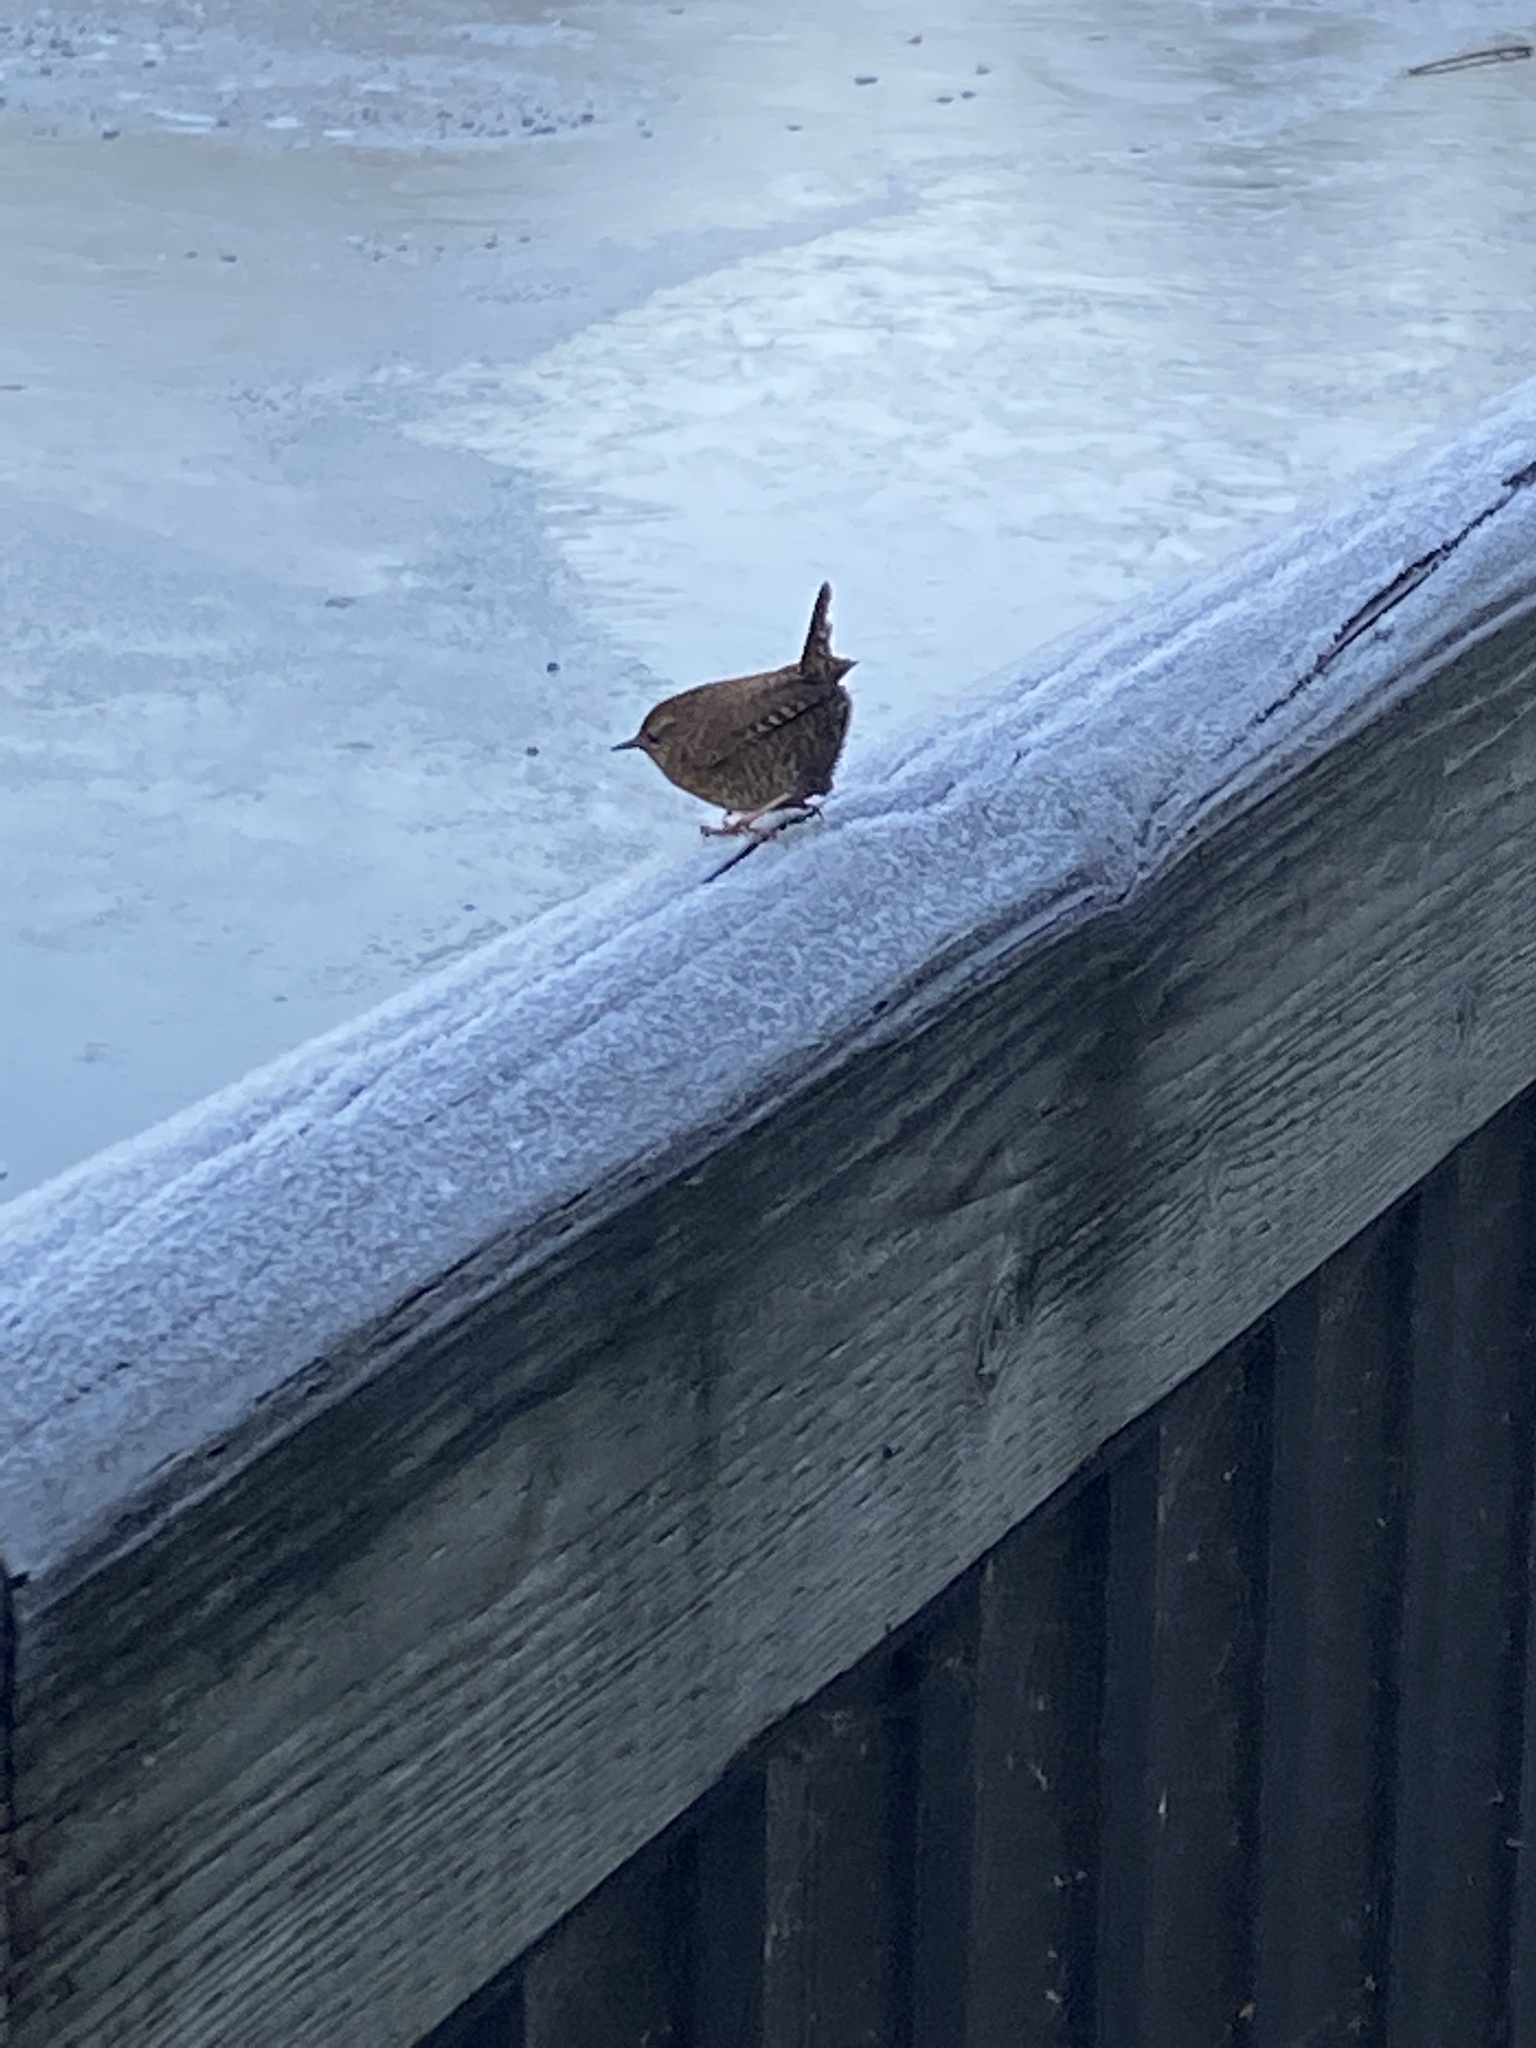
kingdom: Animalia
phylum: Chordata
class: Aves
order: Passeriformes
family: Troglodytidae
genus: Troglodytes
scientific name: Troglodytes pacificus
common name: Pacific wren
